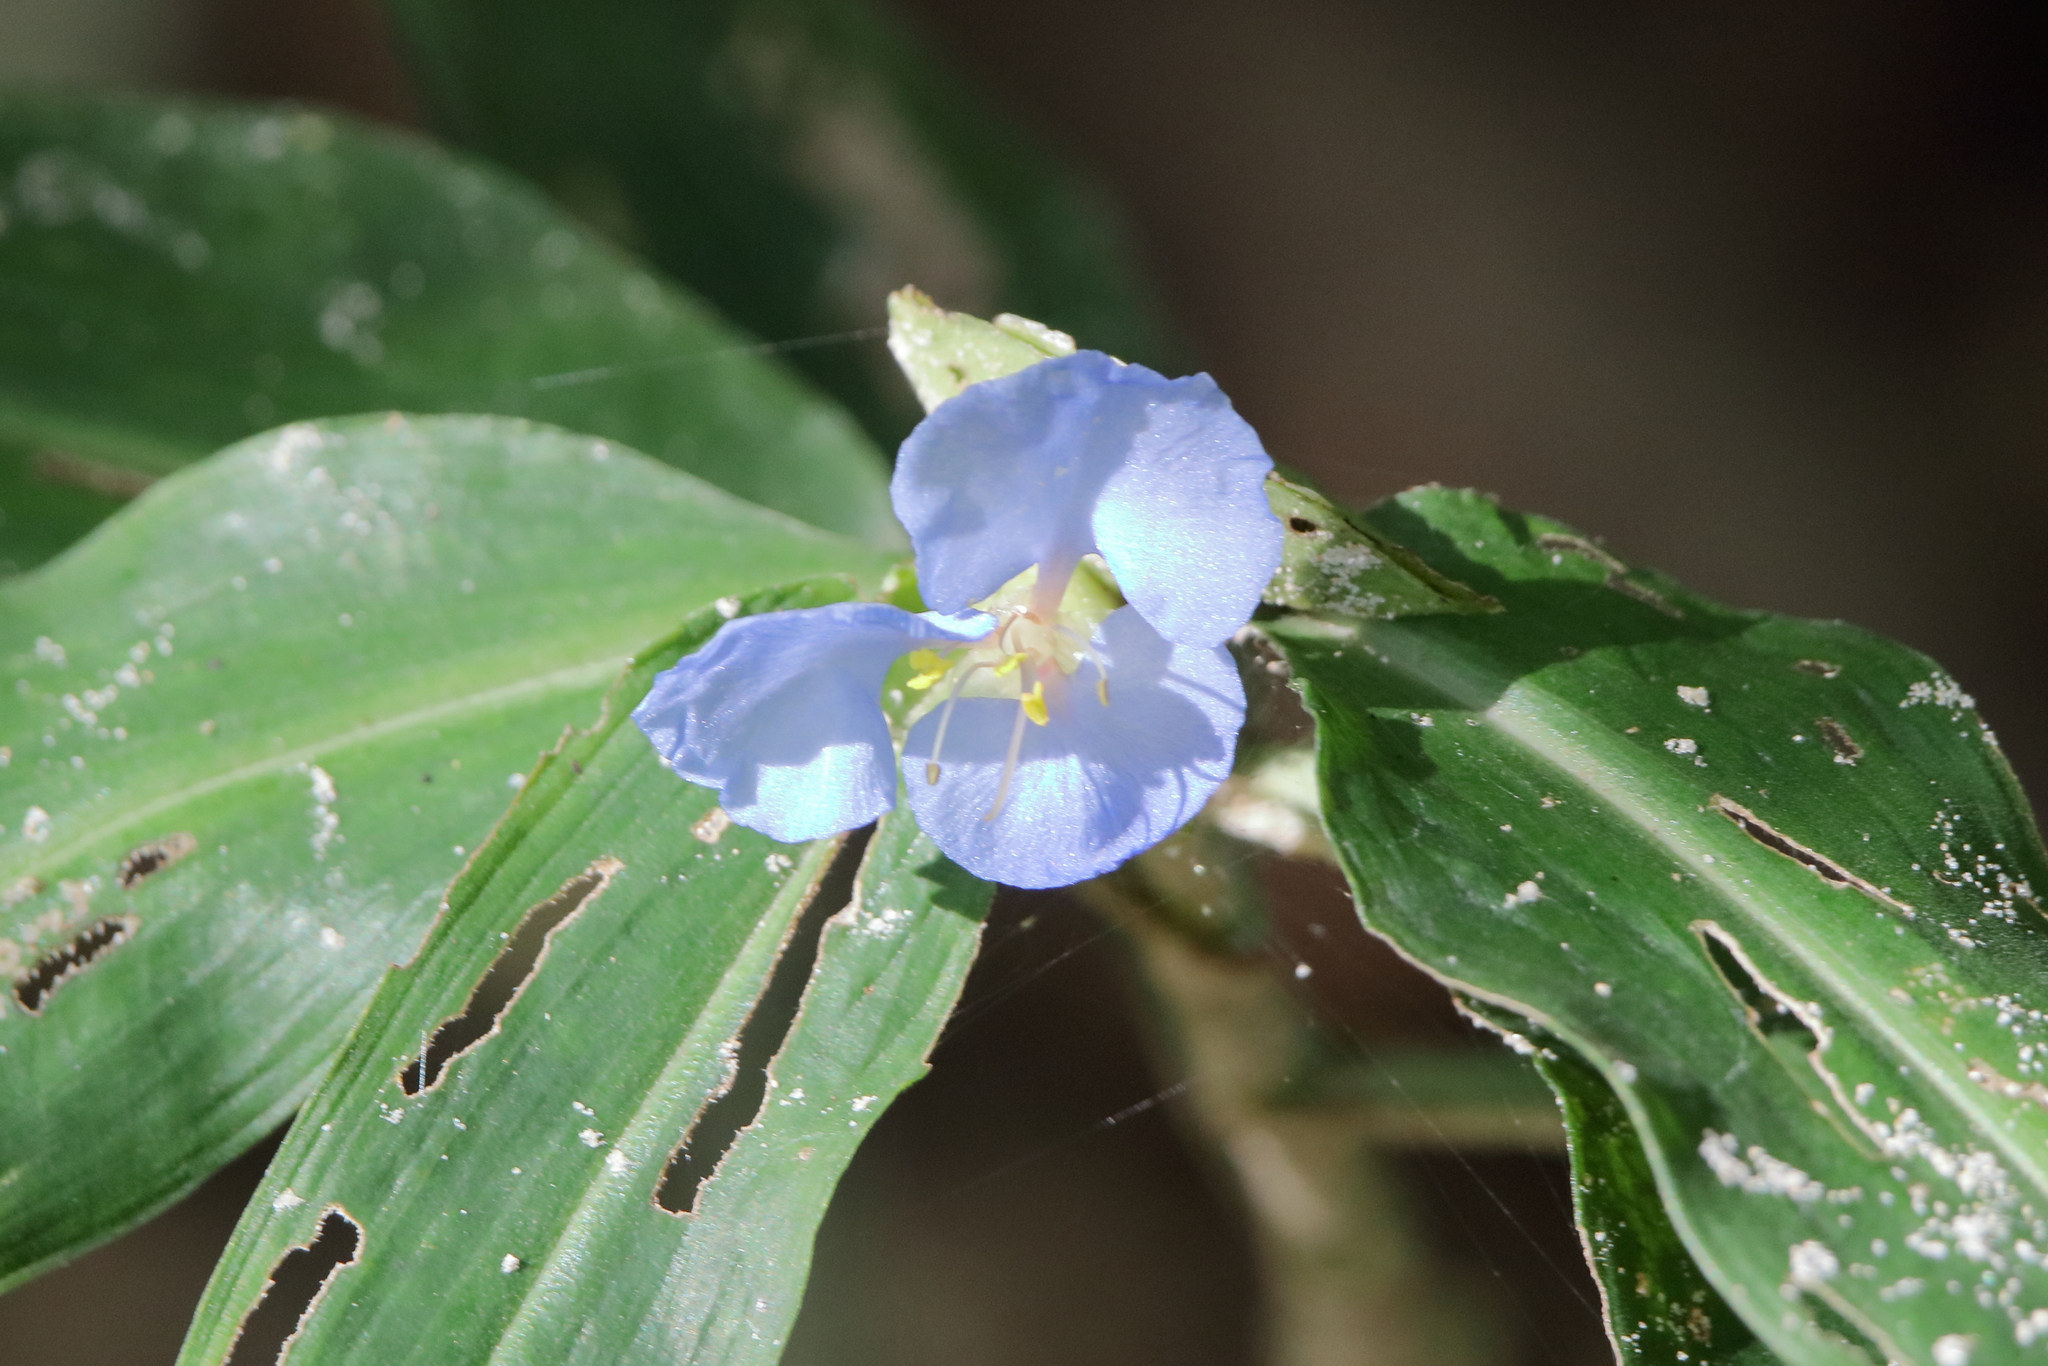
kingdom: Plantae
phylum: Tracheophyta
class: Liliopsida
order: Commelinales
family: Commelinaceae
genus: Commelina
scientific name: Commelina virginica
